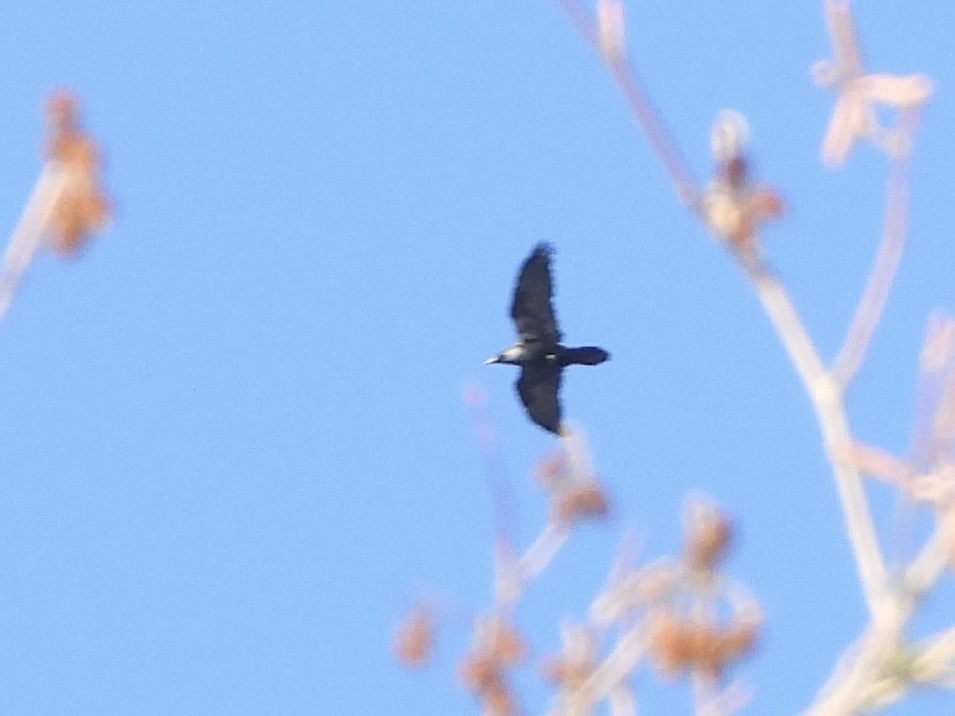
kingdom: Animalia
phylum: Chordata
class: Aves
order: Passeriformes
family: Corvidae
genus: Corvus
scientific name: Corvus corax
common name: Common raven
